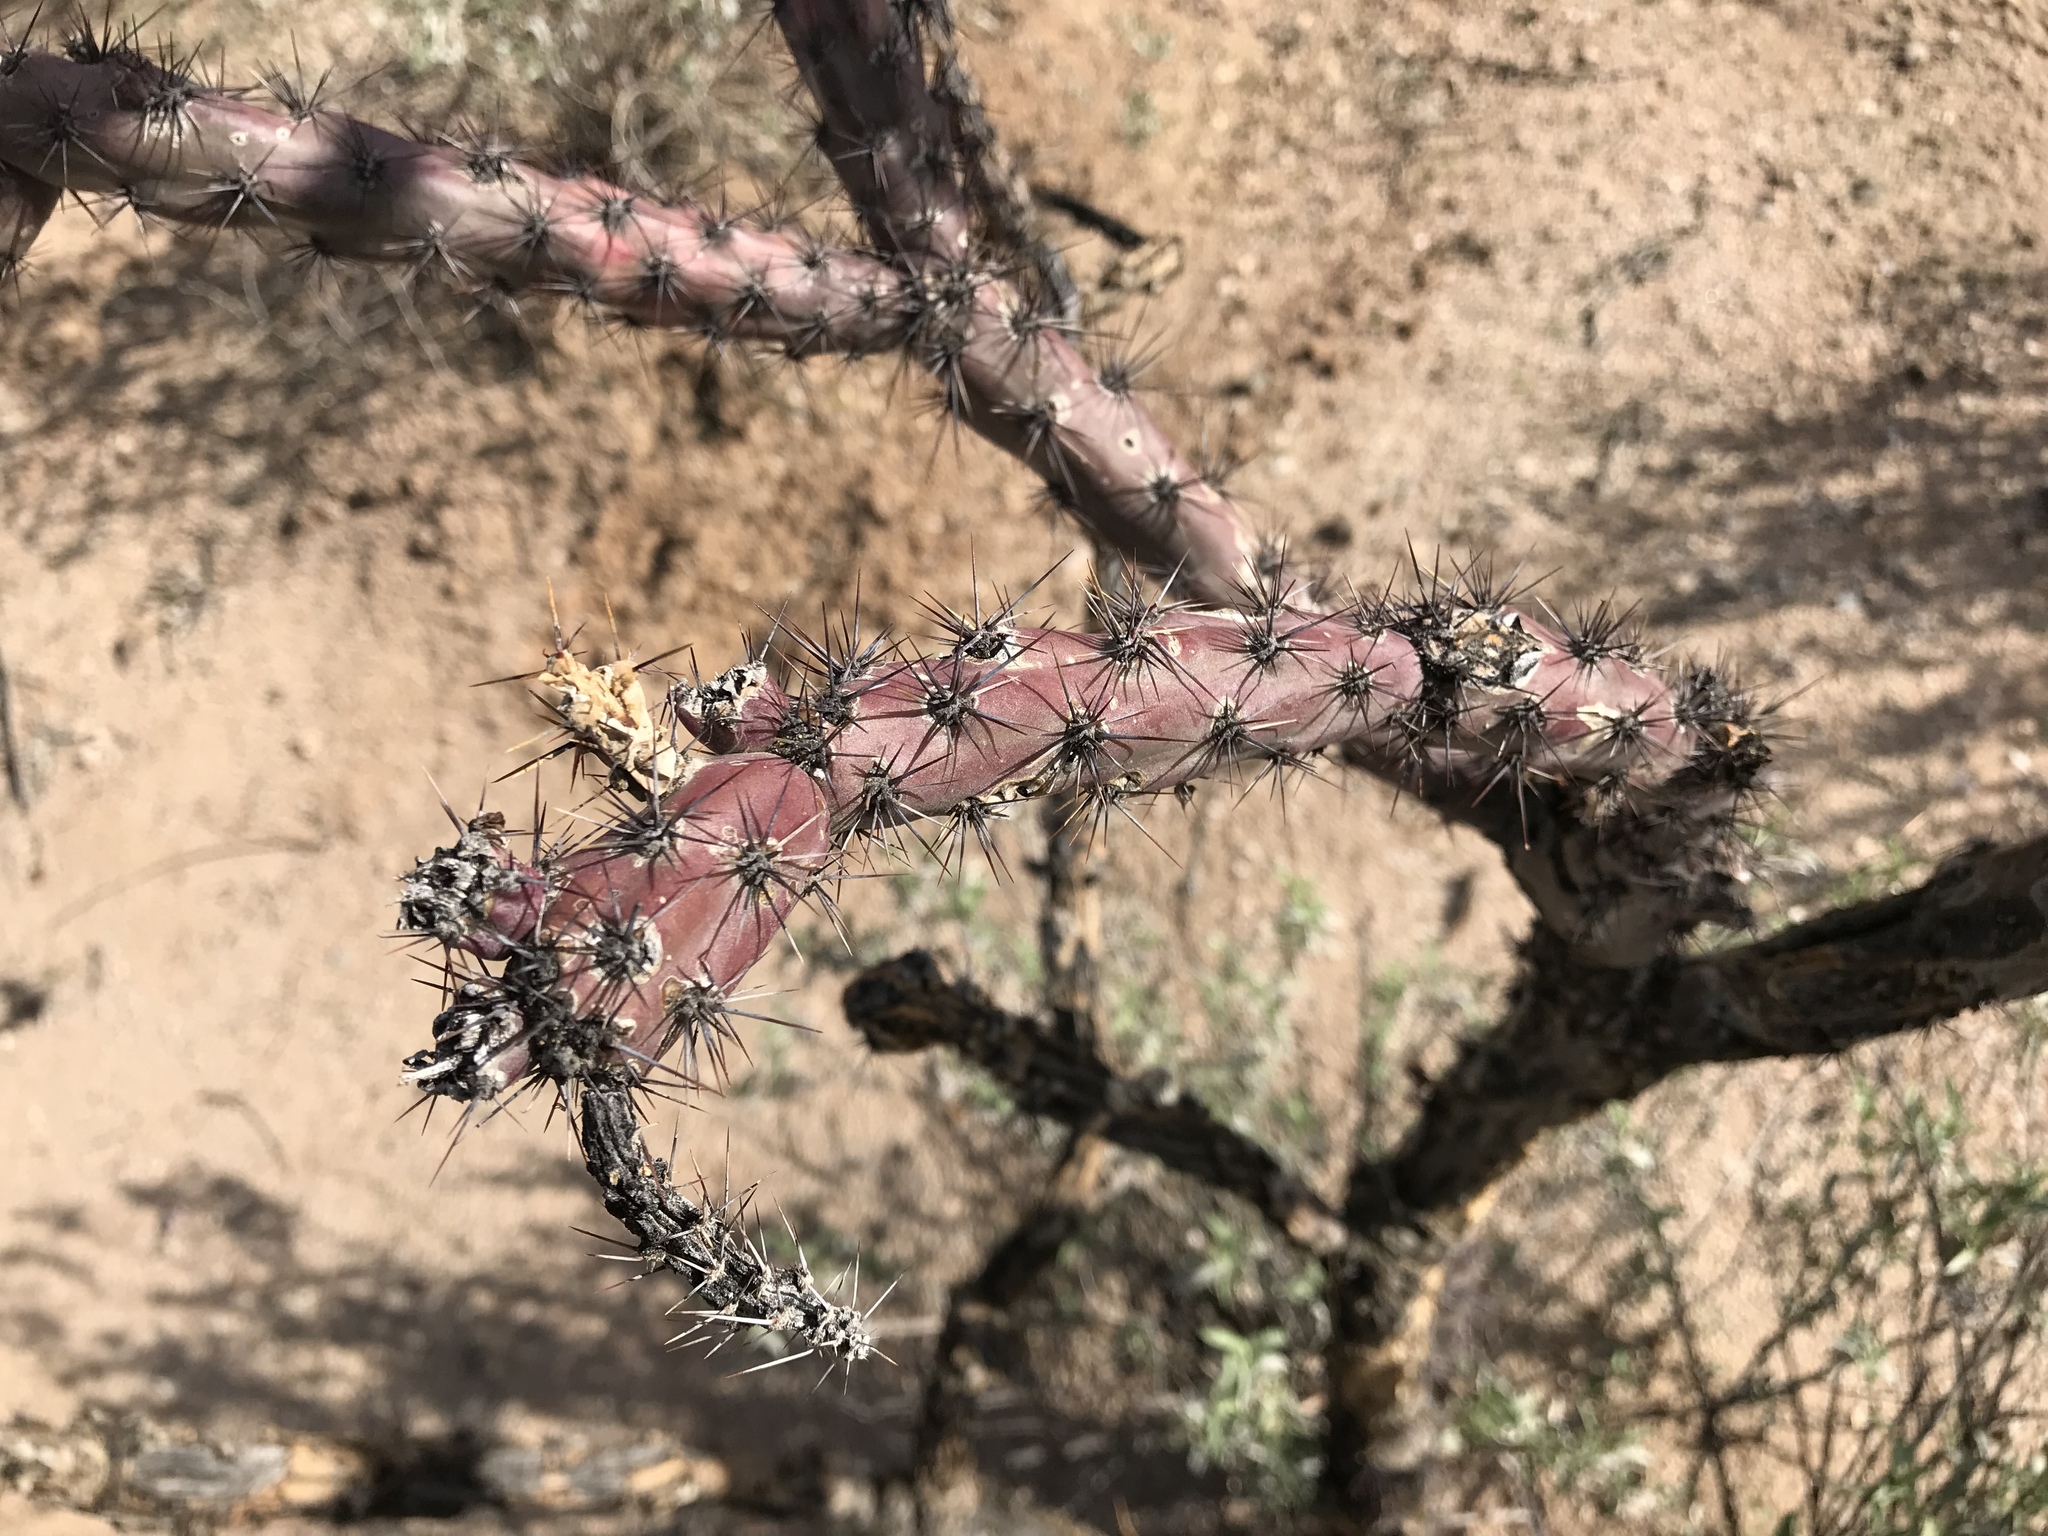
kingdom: Plantae
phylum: Tracheophyta
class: Magnoliopsida
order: Caryophyllales
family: Cactaceae
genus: Cylindropuntia
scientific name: Cylindropuntia thurberi
